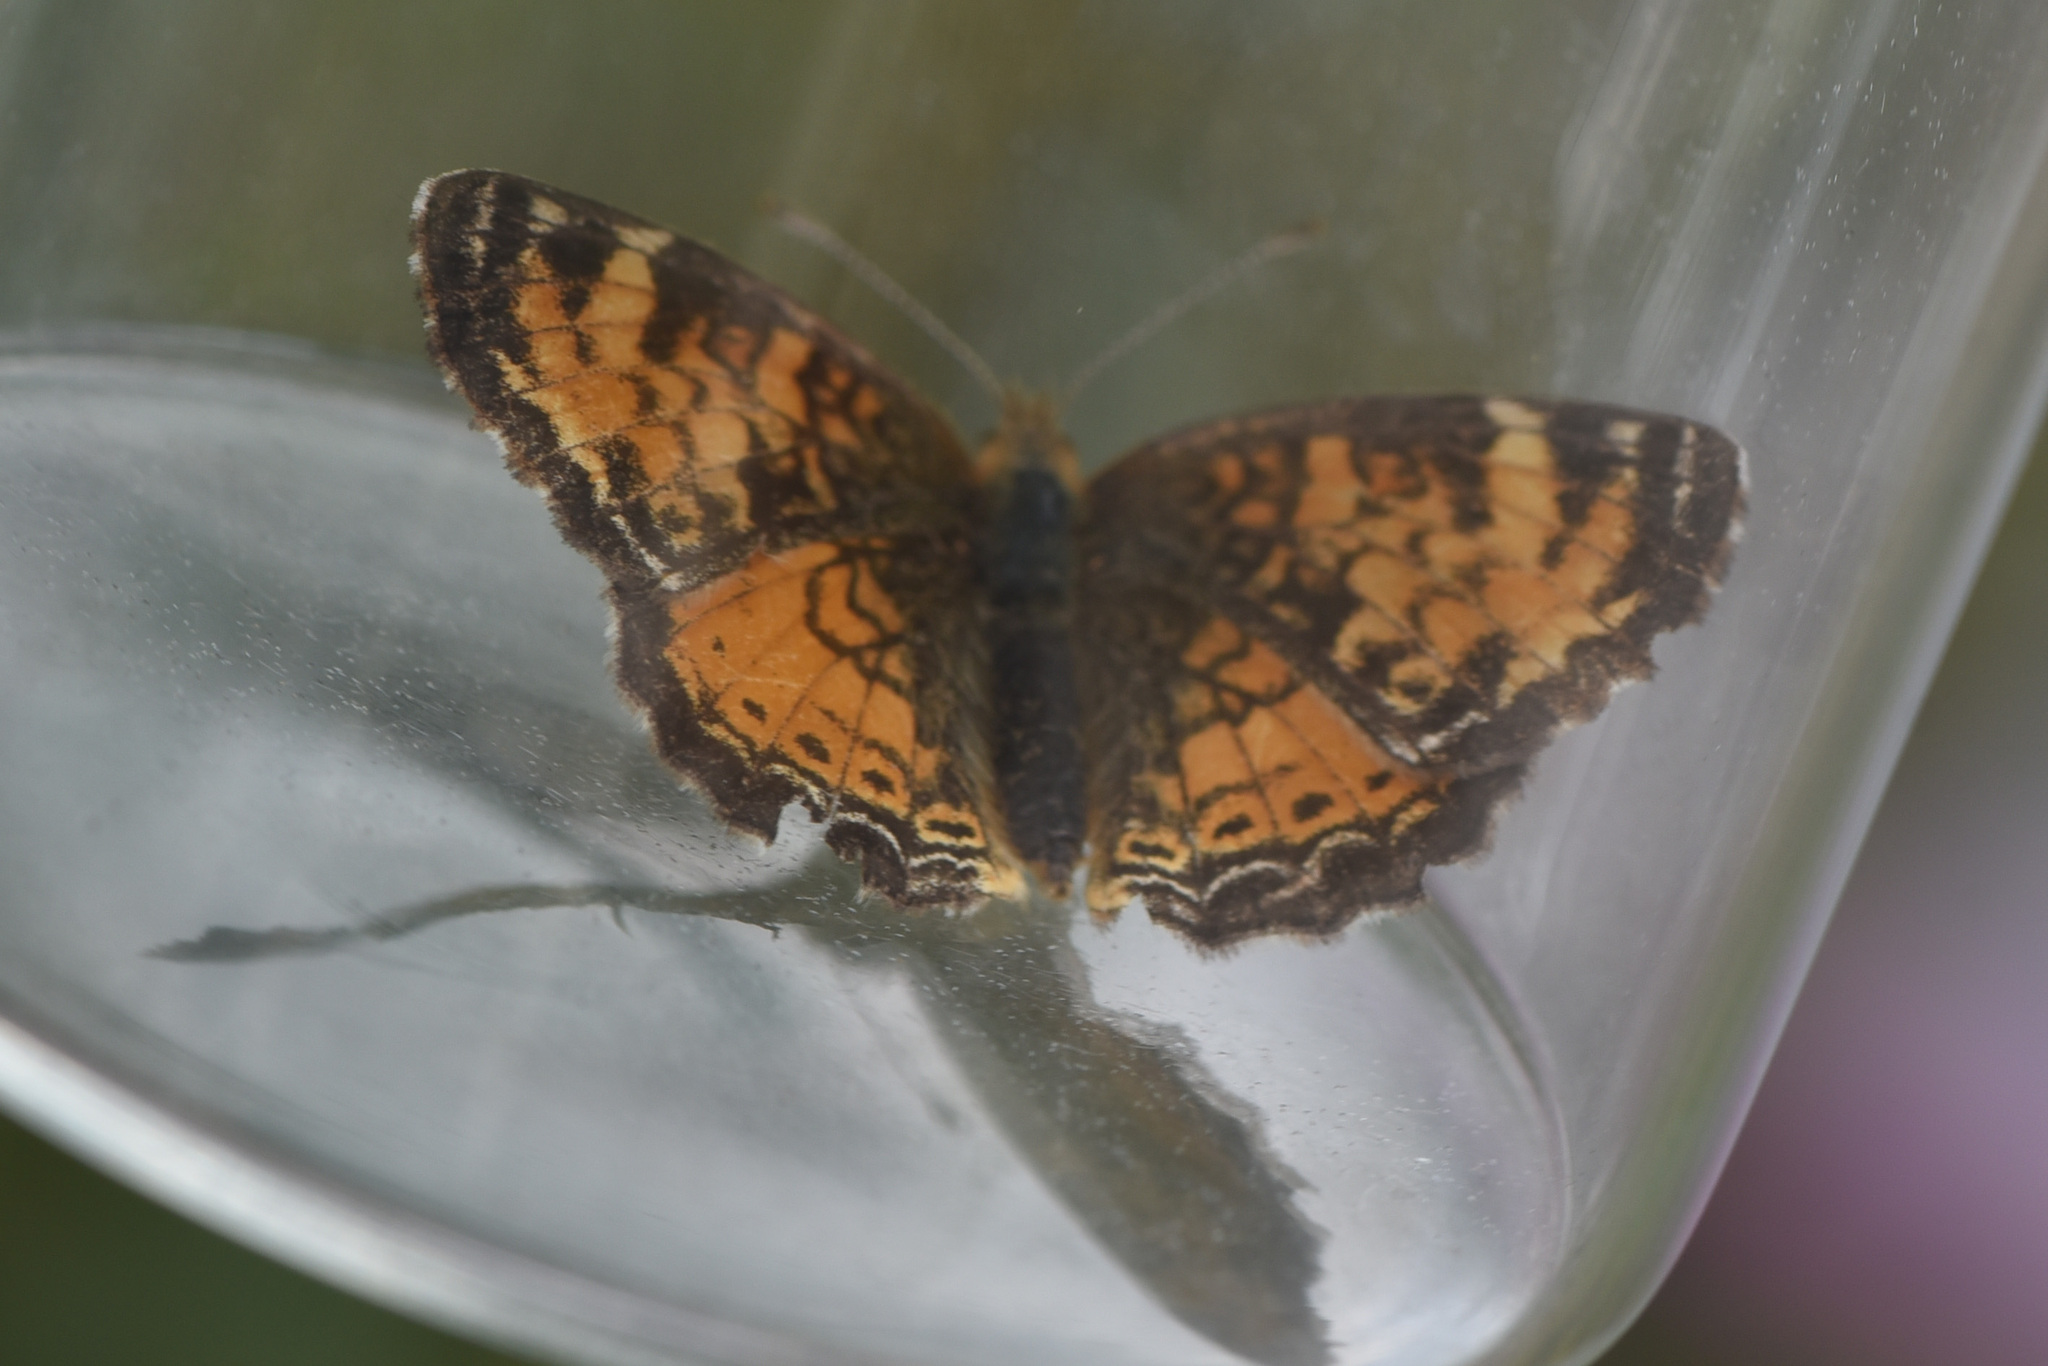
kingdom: Animalia
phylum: Arthropoda
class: Insecta
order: Lepidoptera
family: Nymphalidae
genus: Phyciodes
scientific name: Phyciodes tharos
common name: Pearl crescent
